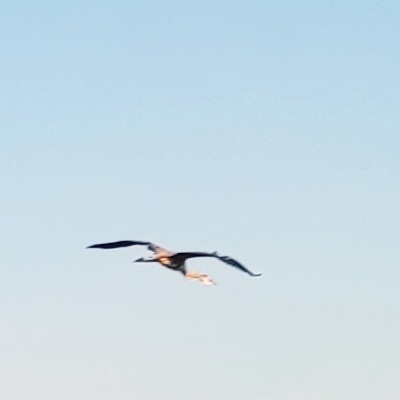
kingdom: Animalia
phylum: Chordata
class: Aves
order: Pelecaniformes
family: Ardeidae
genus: Ardea
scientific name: Ardea cinerea
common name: Grey heron
